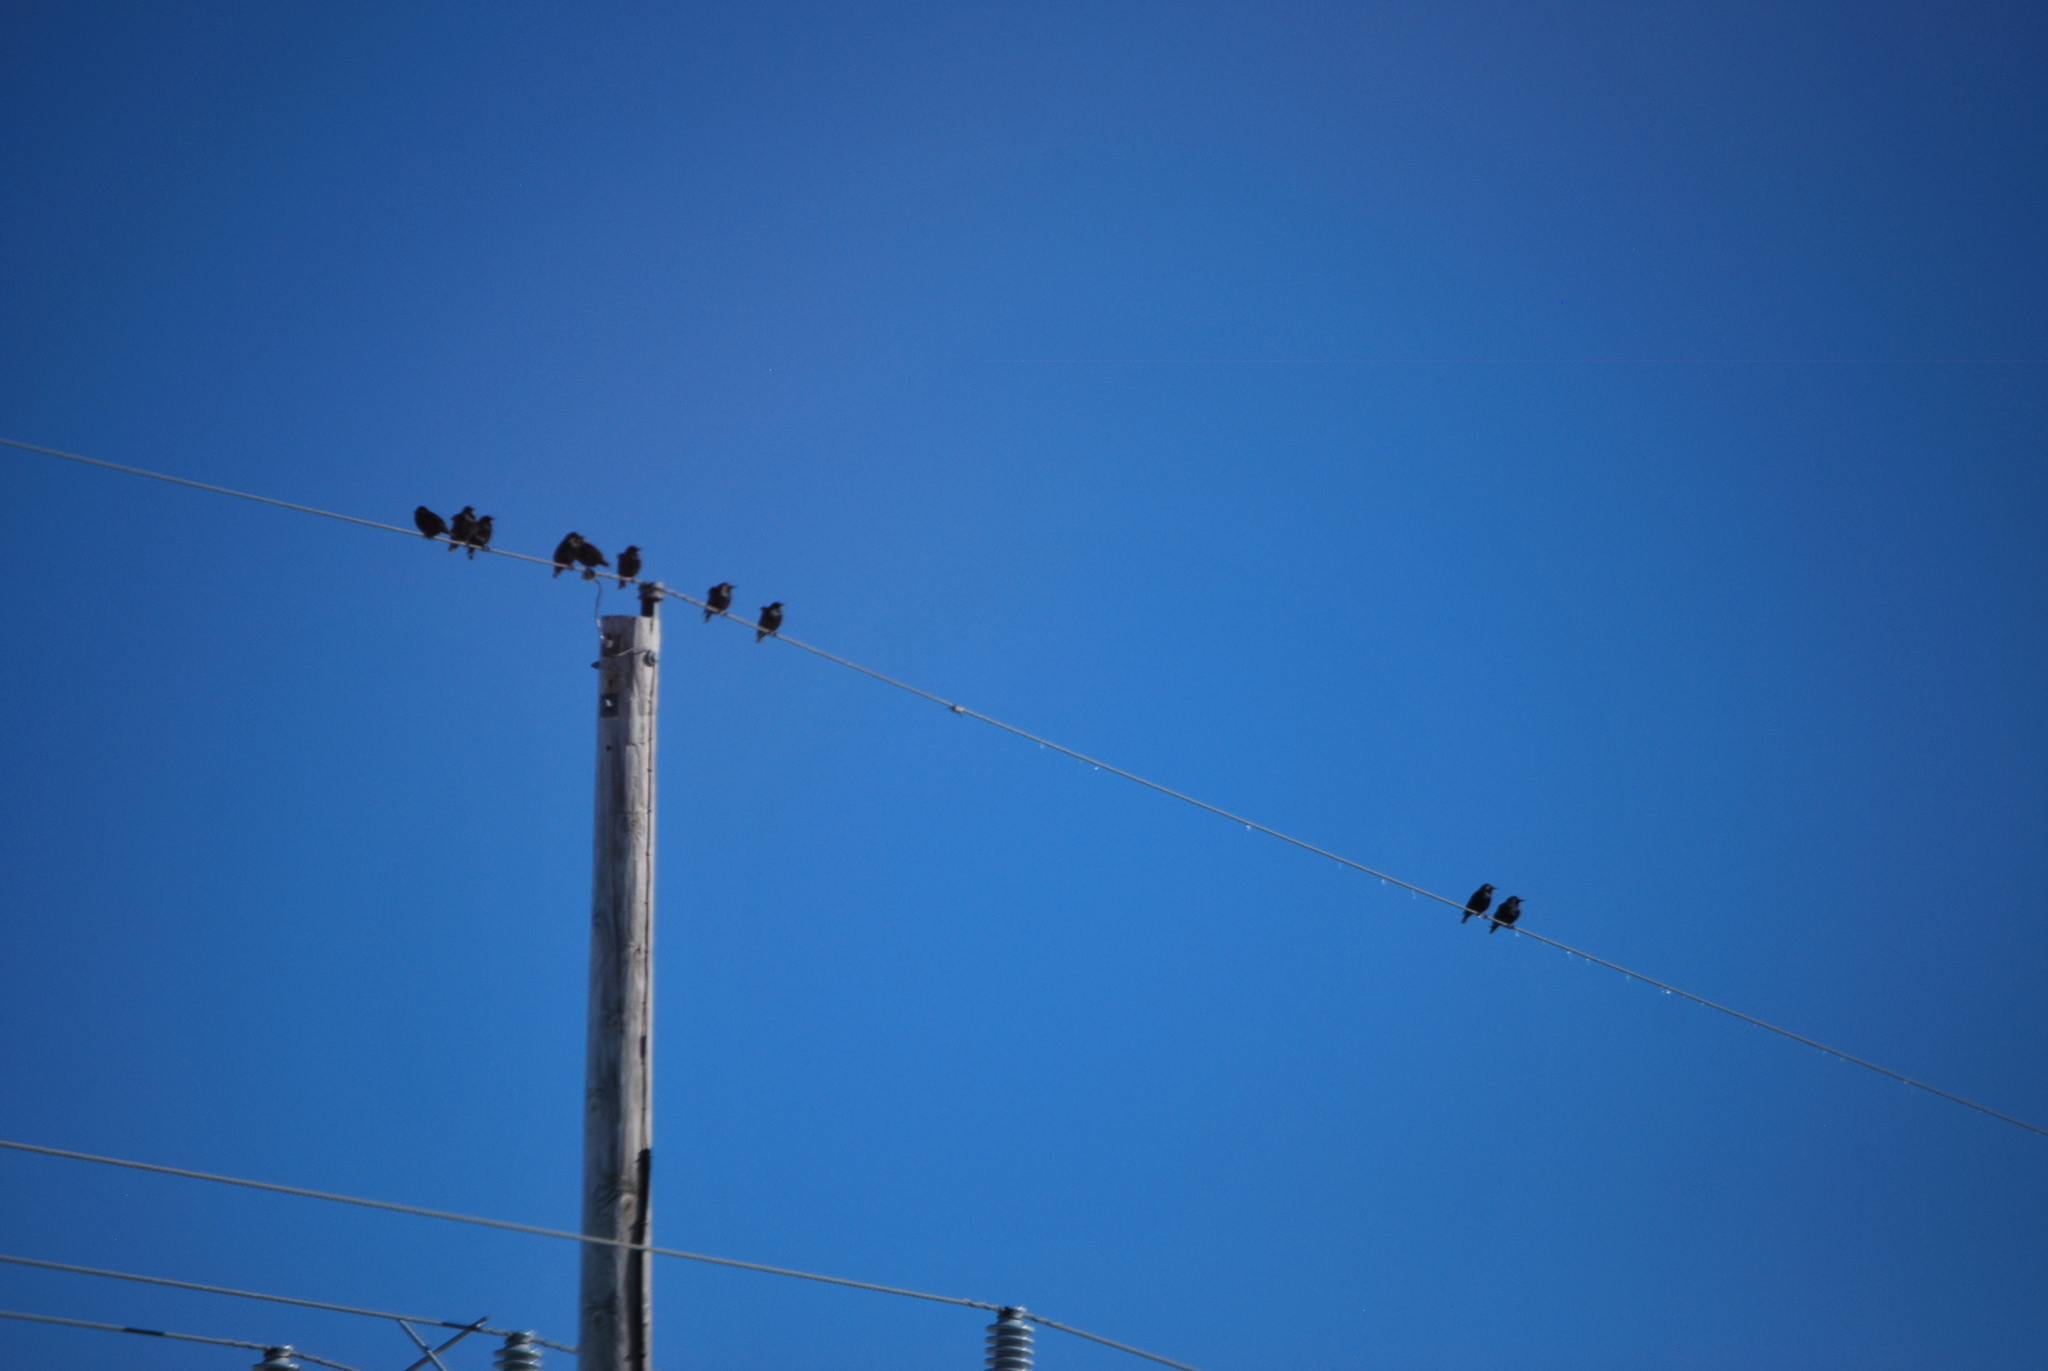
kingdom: Animalia
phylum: Chordata
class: Aves
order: Passeriformes
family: Sturnidae
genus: Sturnus
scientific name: Sturnus vulgaris
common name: Common starling
